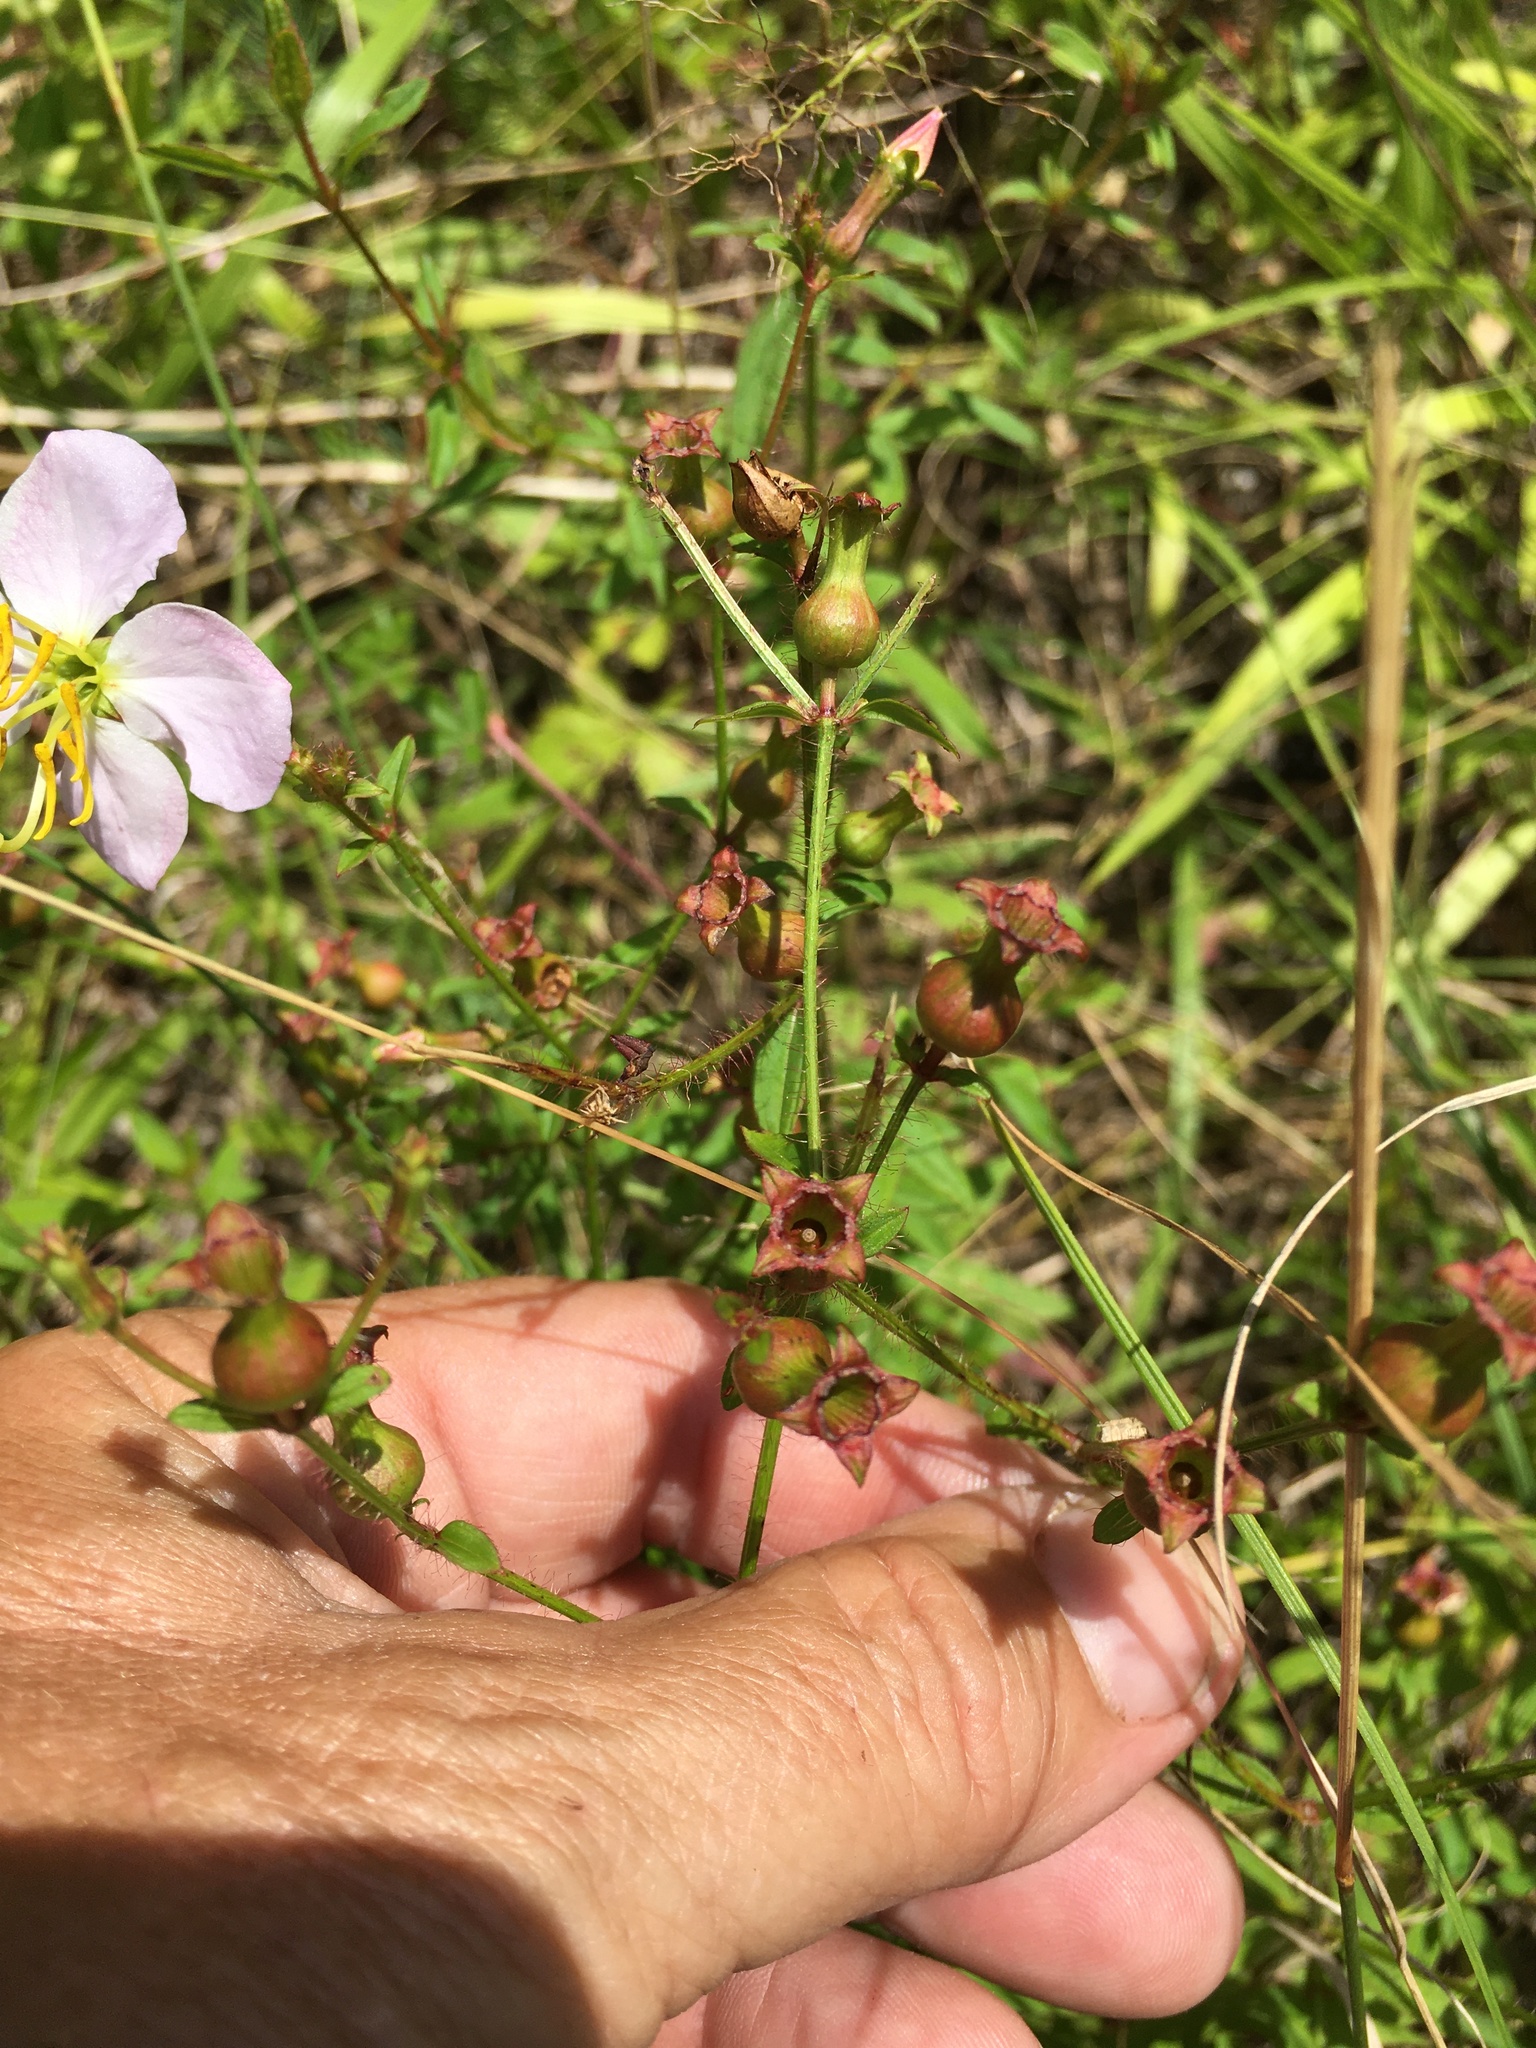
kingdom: Plantae
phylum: Tracheophyta
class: Magnoliopsida
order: Myrtales
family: Melastomataceae
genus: Rhexia
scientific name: Rhexia mariana
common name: Dull meadow-pitcher
